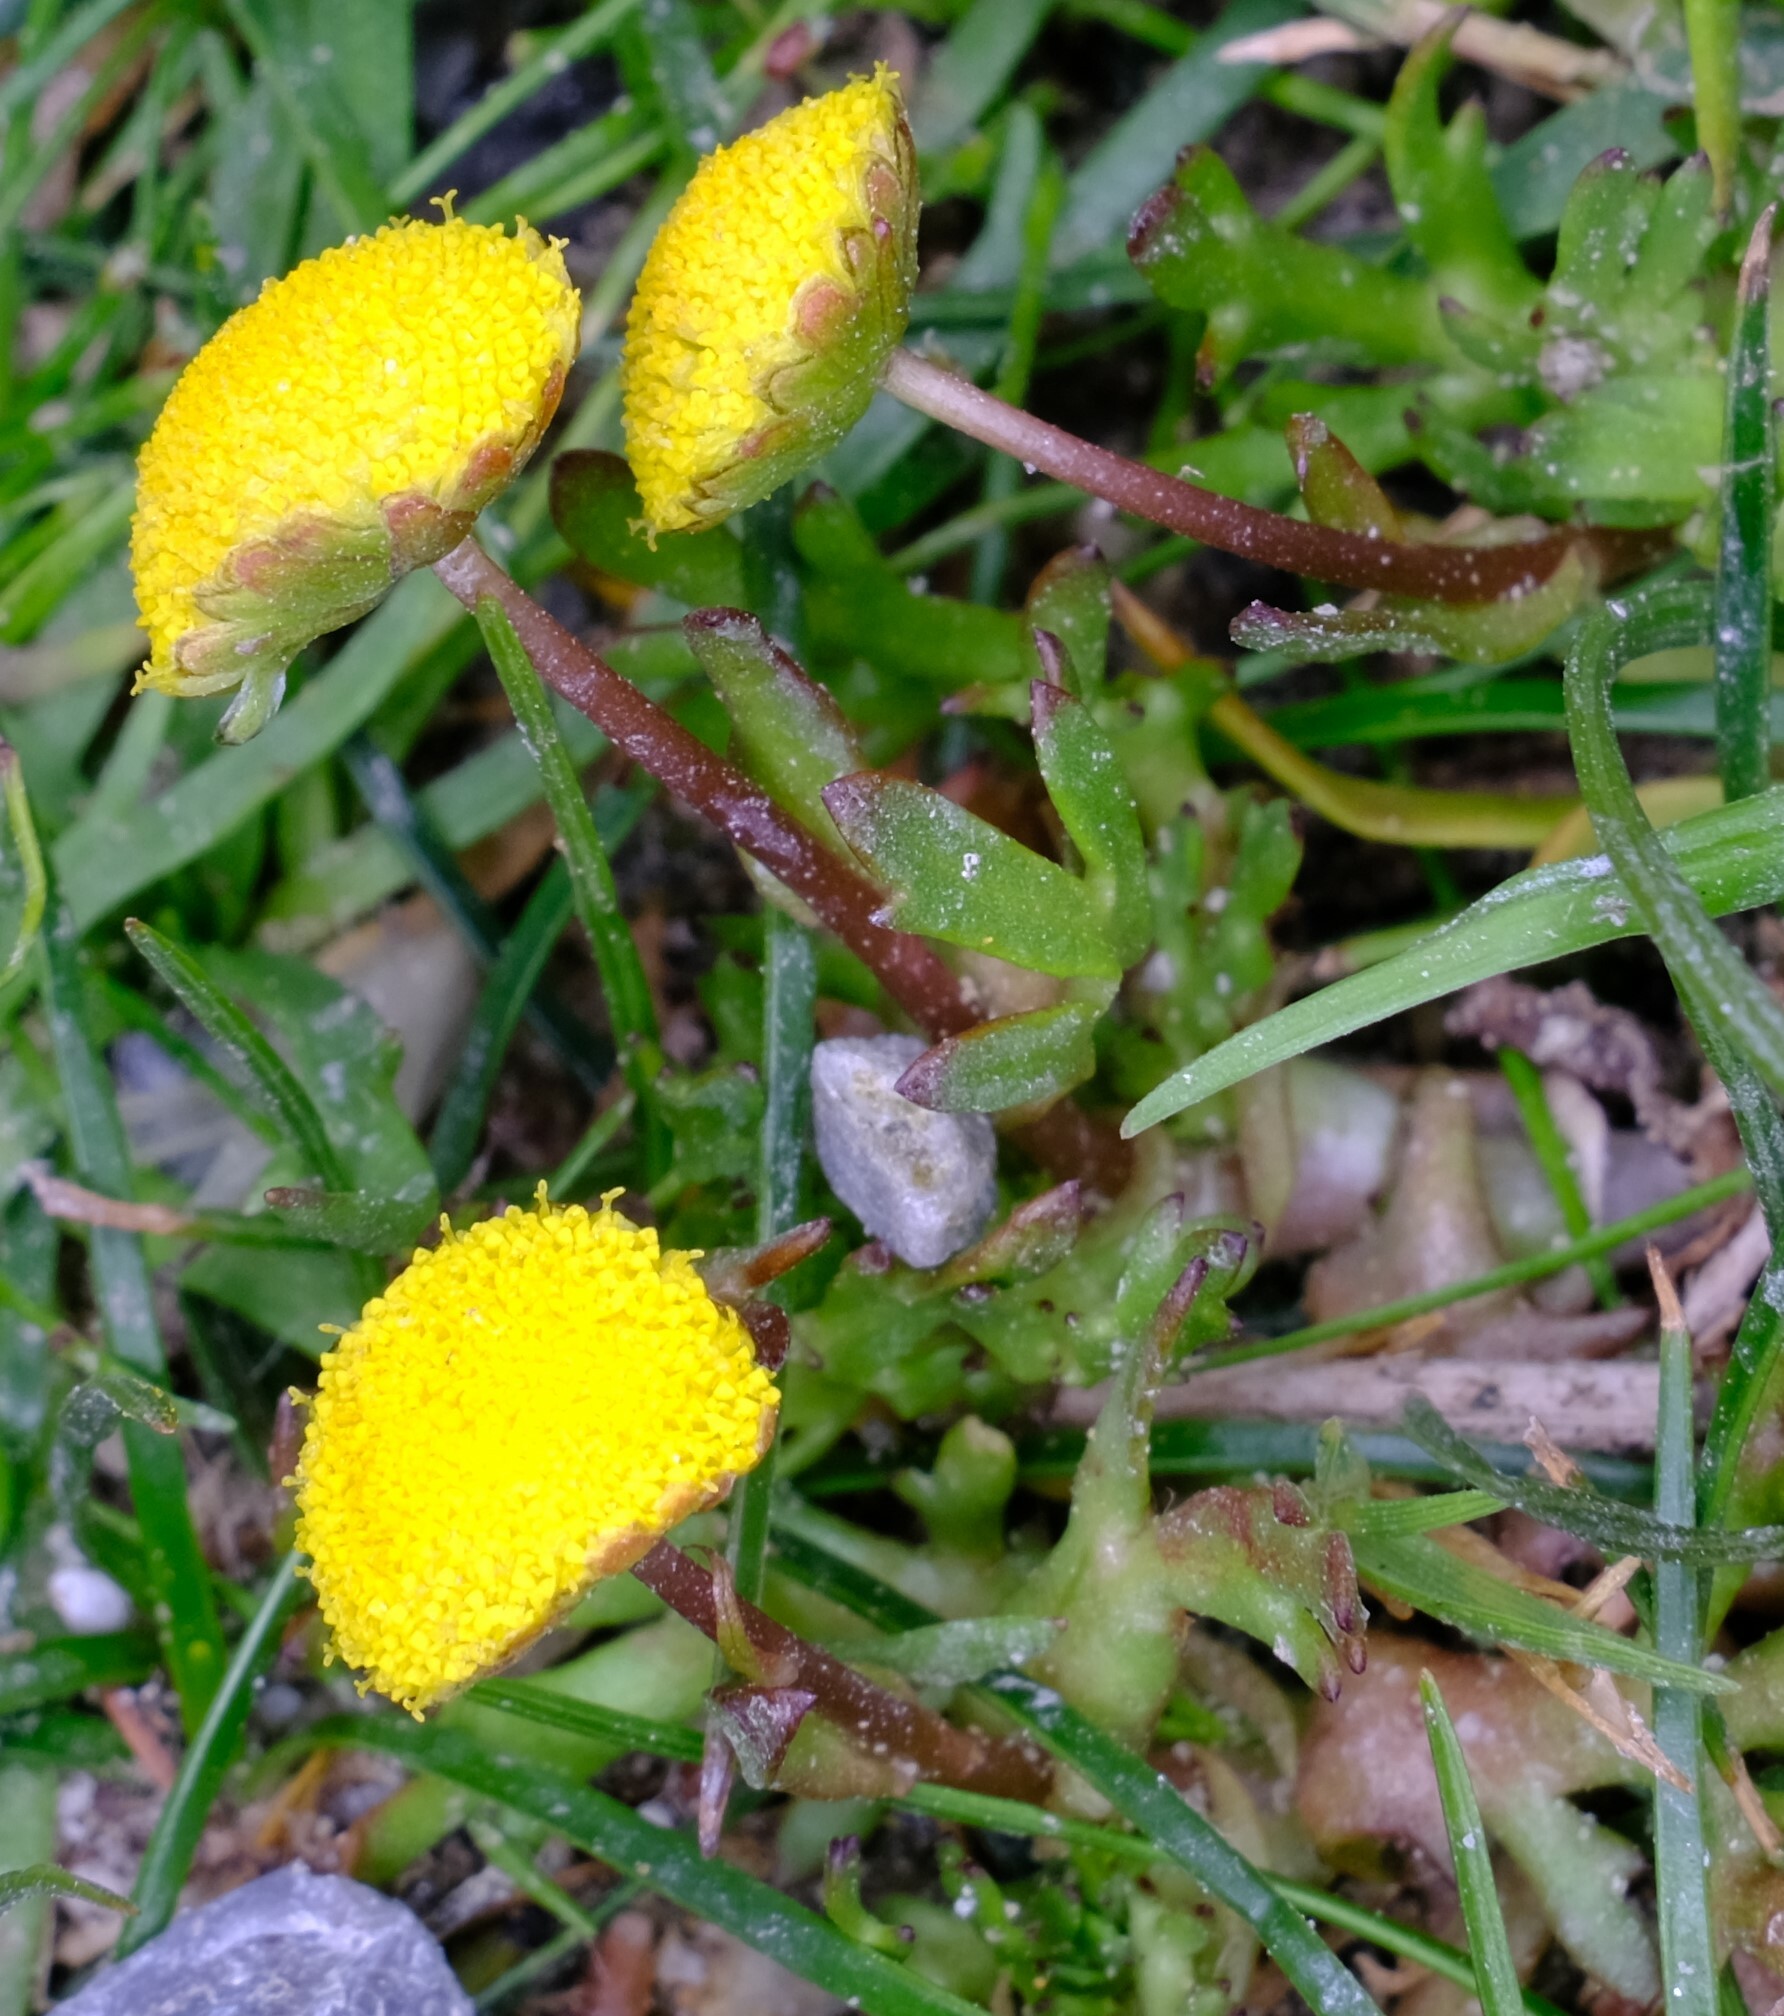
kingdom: Plantae
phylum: Tracheophyta
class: Magnoliopsida
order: Asterales
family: Asteraceae
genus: Cotula
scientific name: Cotula coronopifolia
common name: Buttonweed
